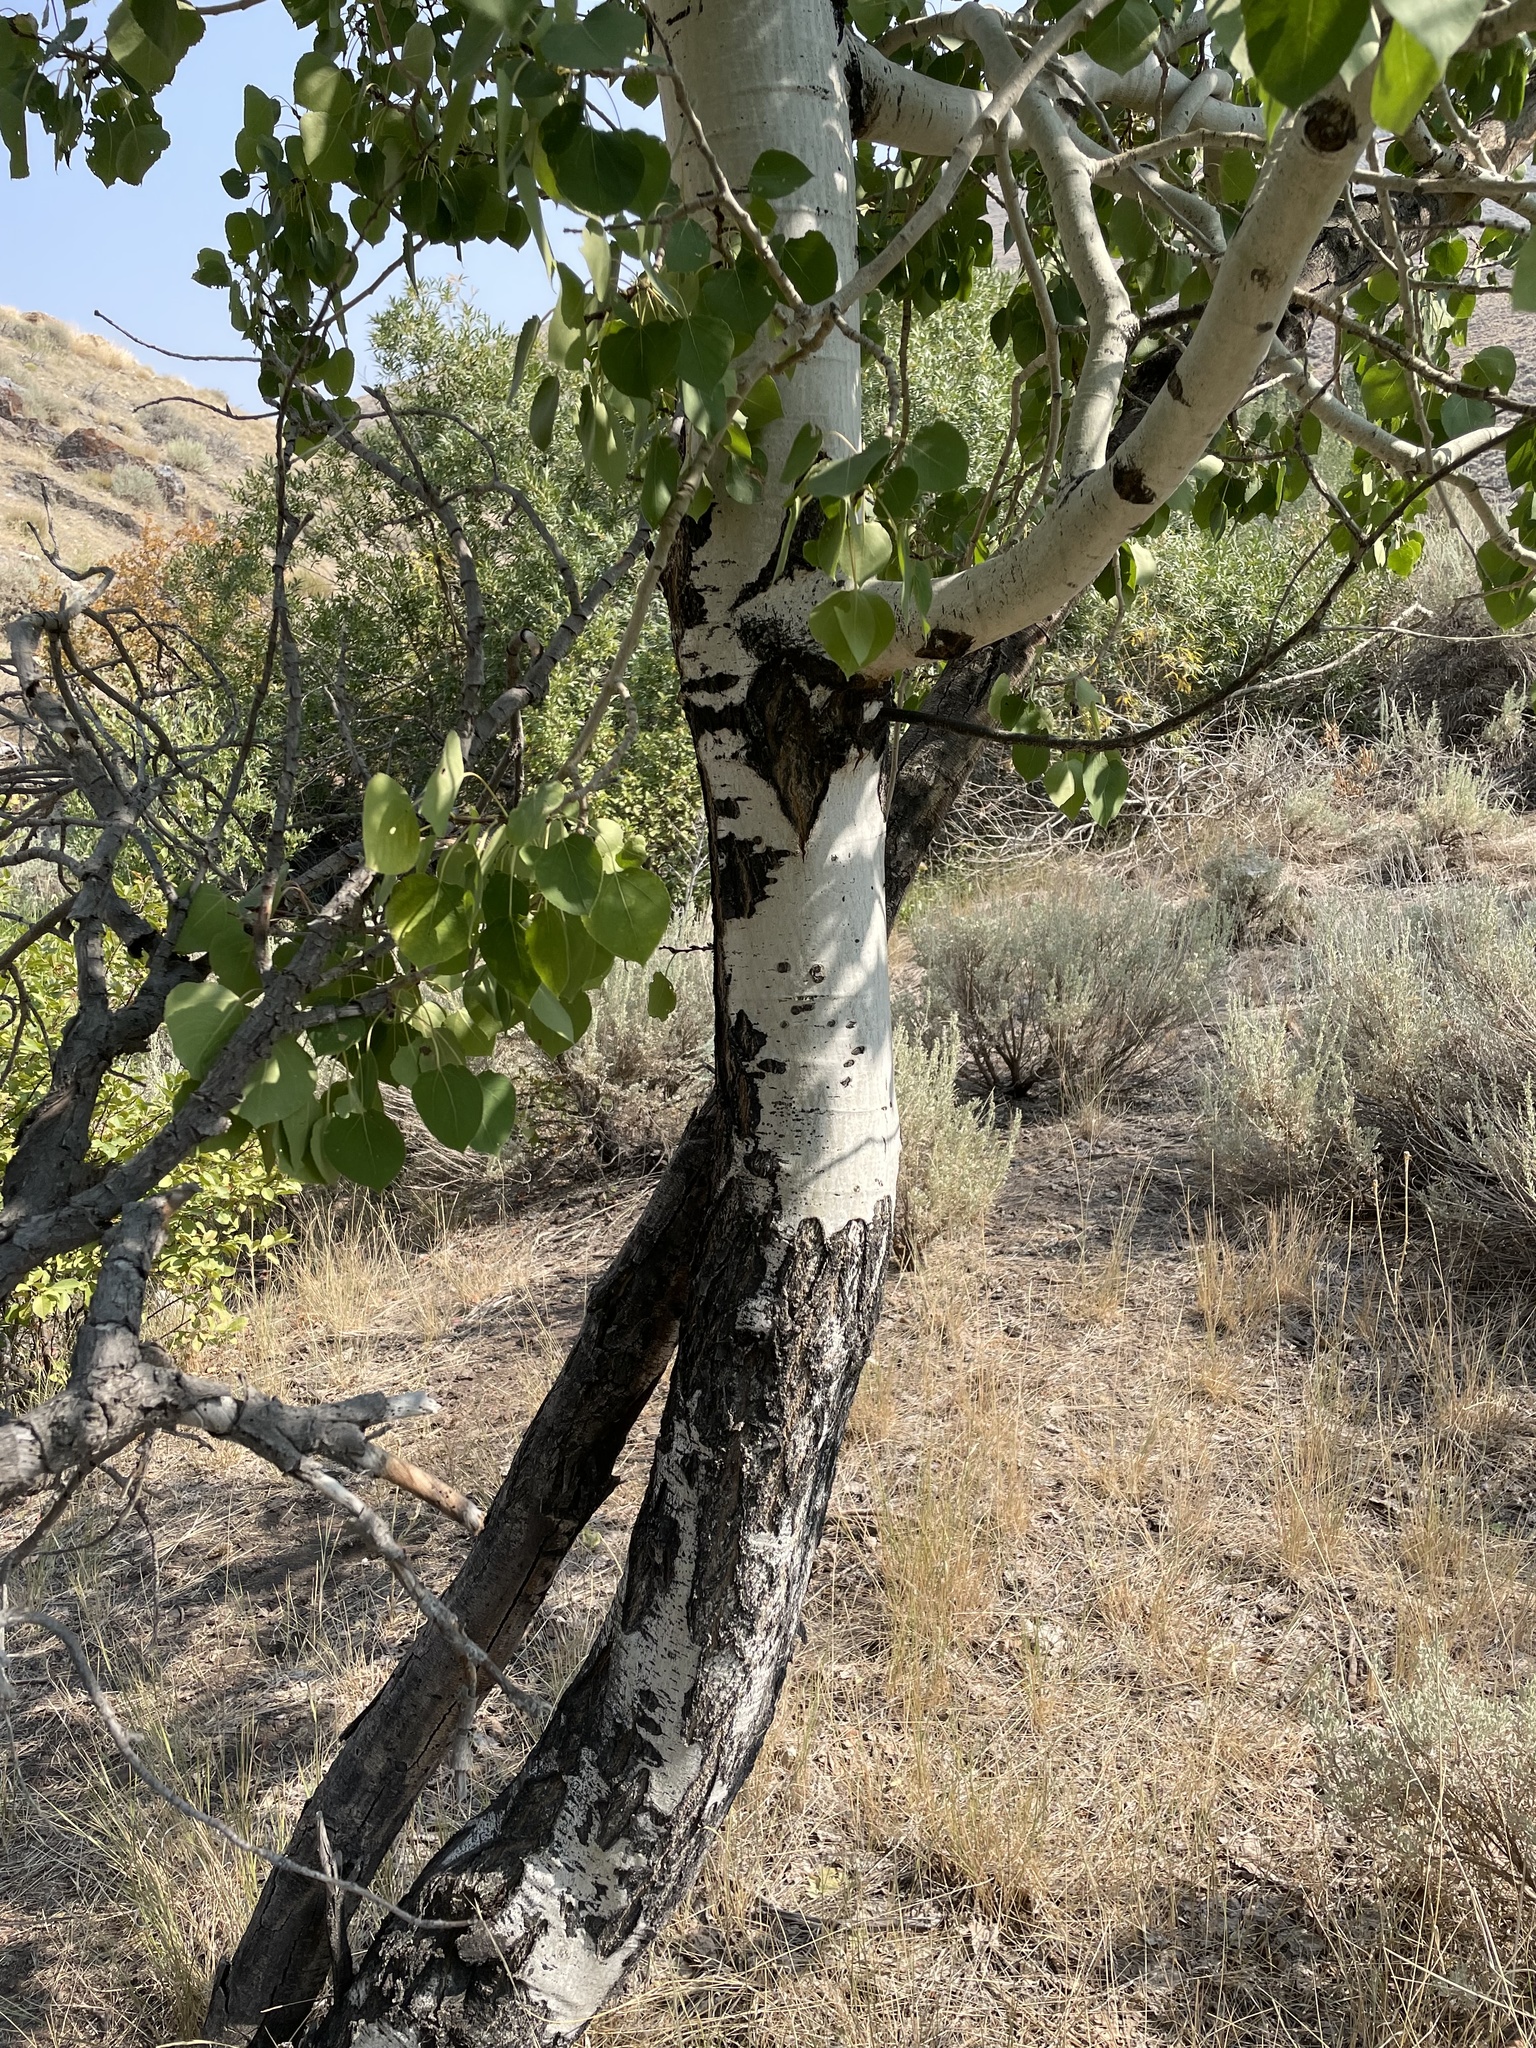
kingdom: Plantae
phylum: Tracheophyta
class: Magnoliopsida
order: Malpighiales
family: Salicaceae
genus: Populus
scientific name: Populus tremuloides
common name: Quaking aspen
